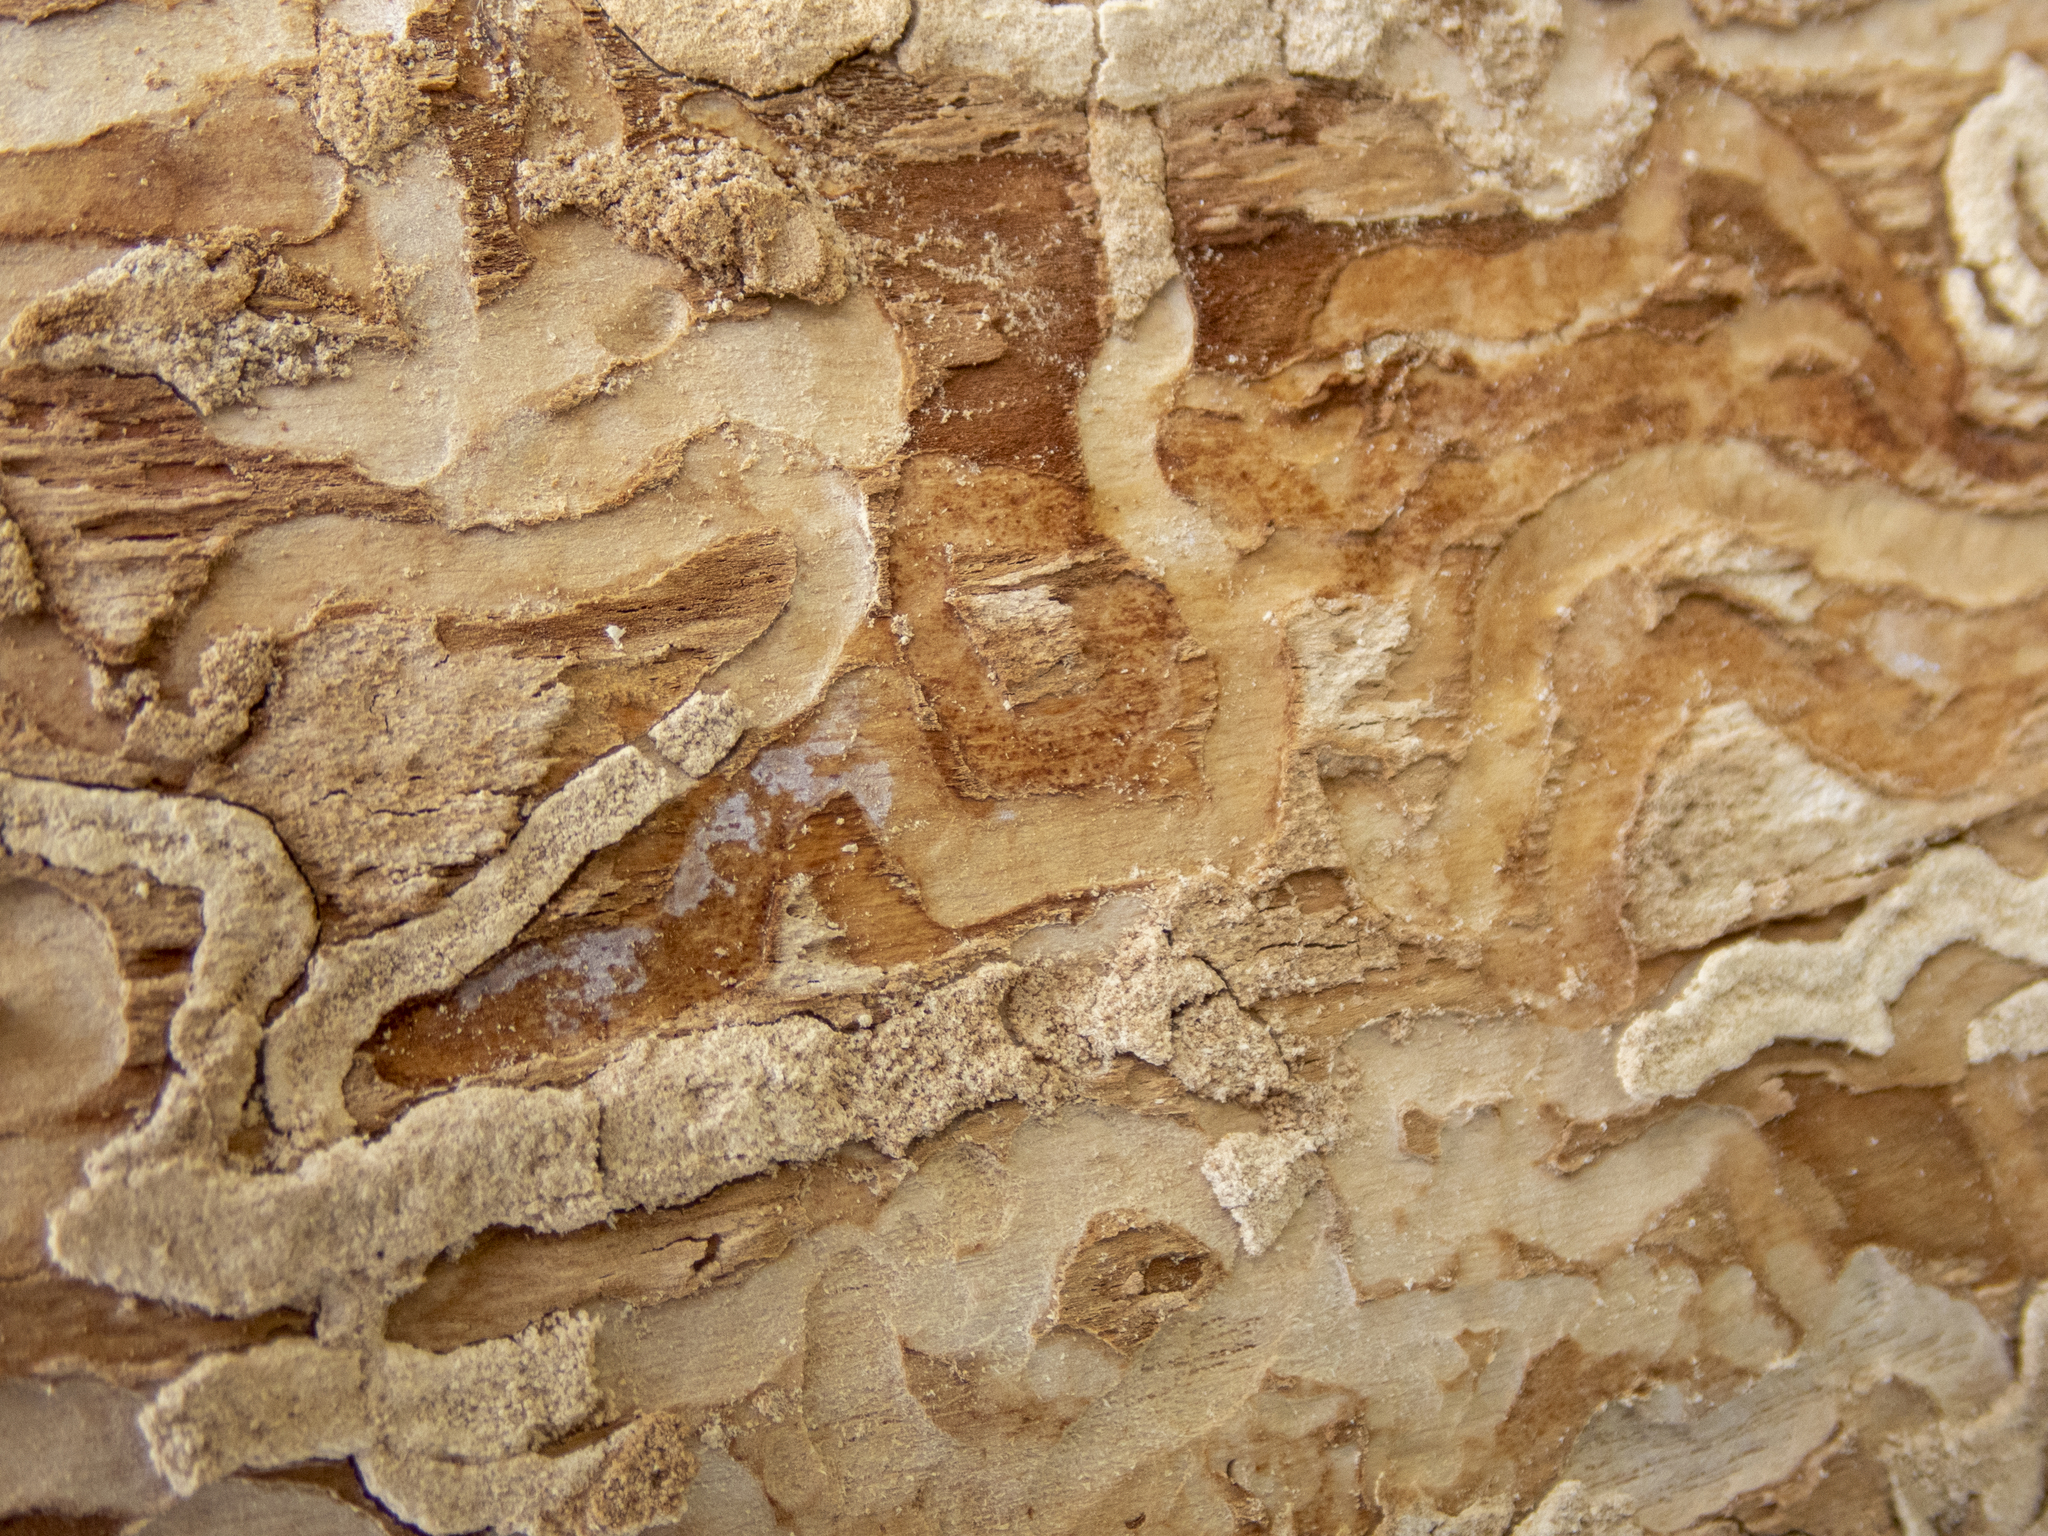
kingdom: Animalia
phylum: Arthropoda
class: Insecta
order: Coleoptera
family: Buprestidae
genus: Agrilus
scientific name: Agrilus planipennis
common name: Emerald ash borer
